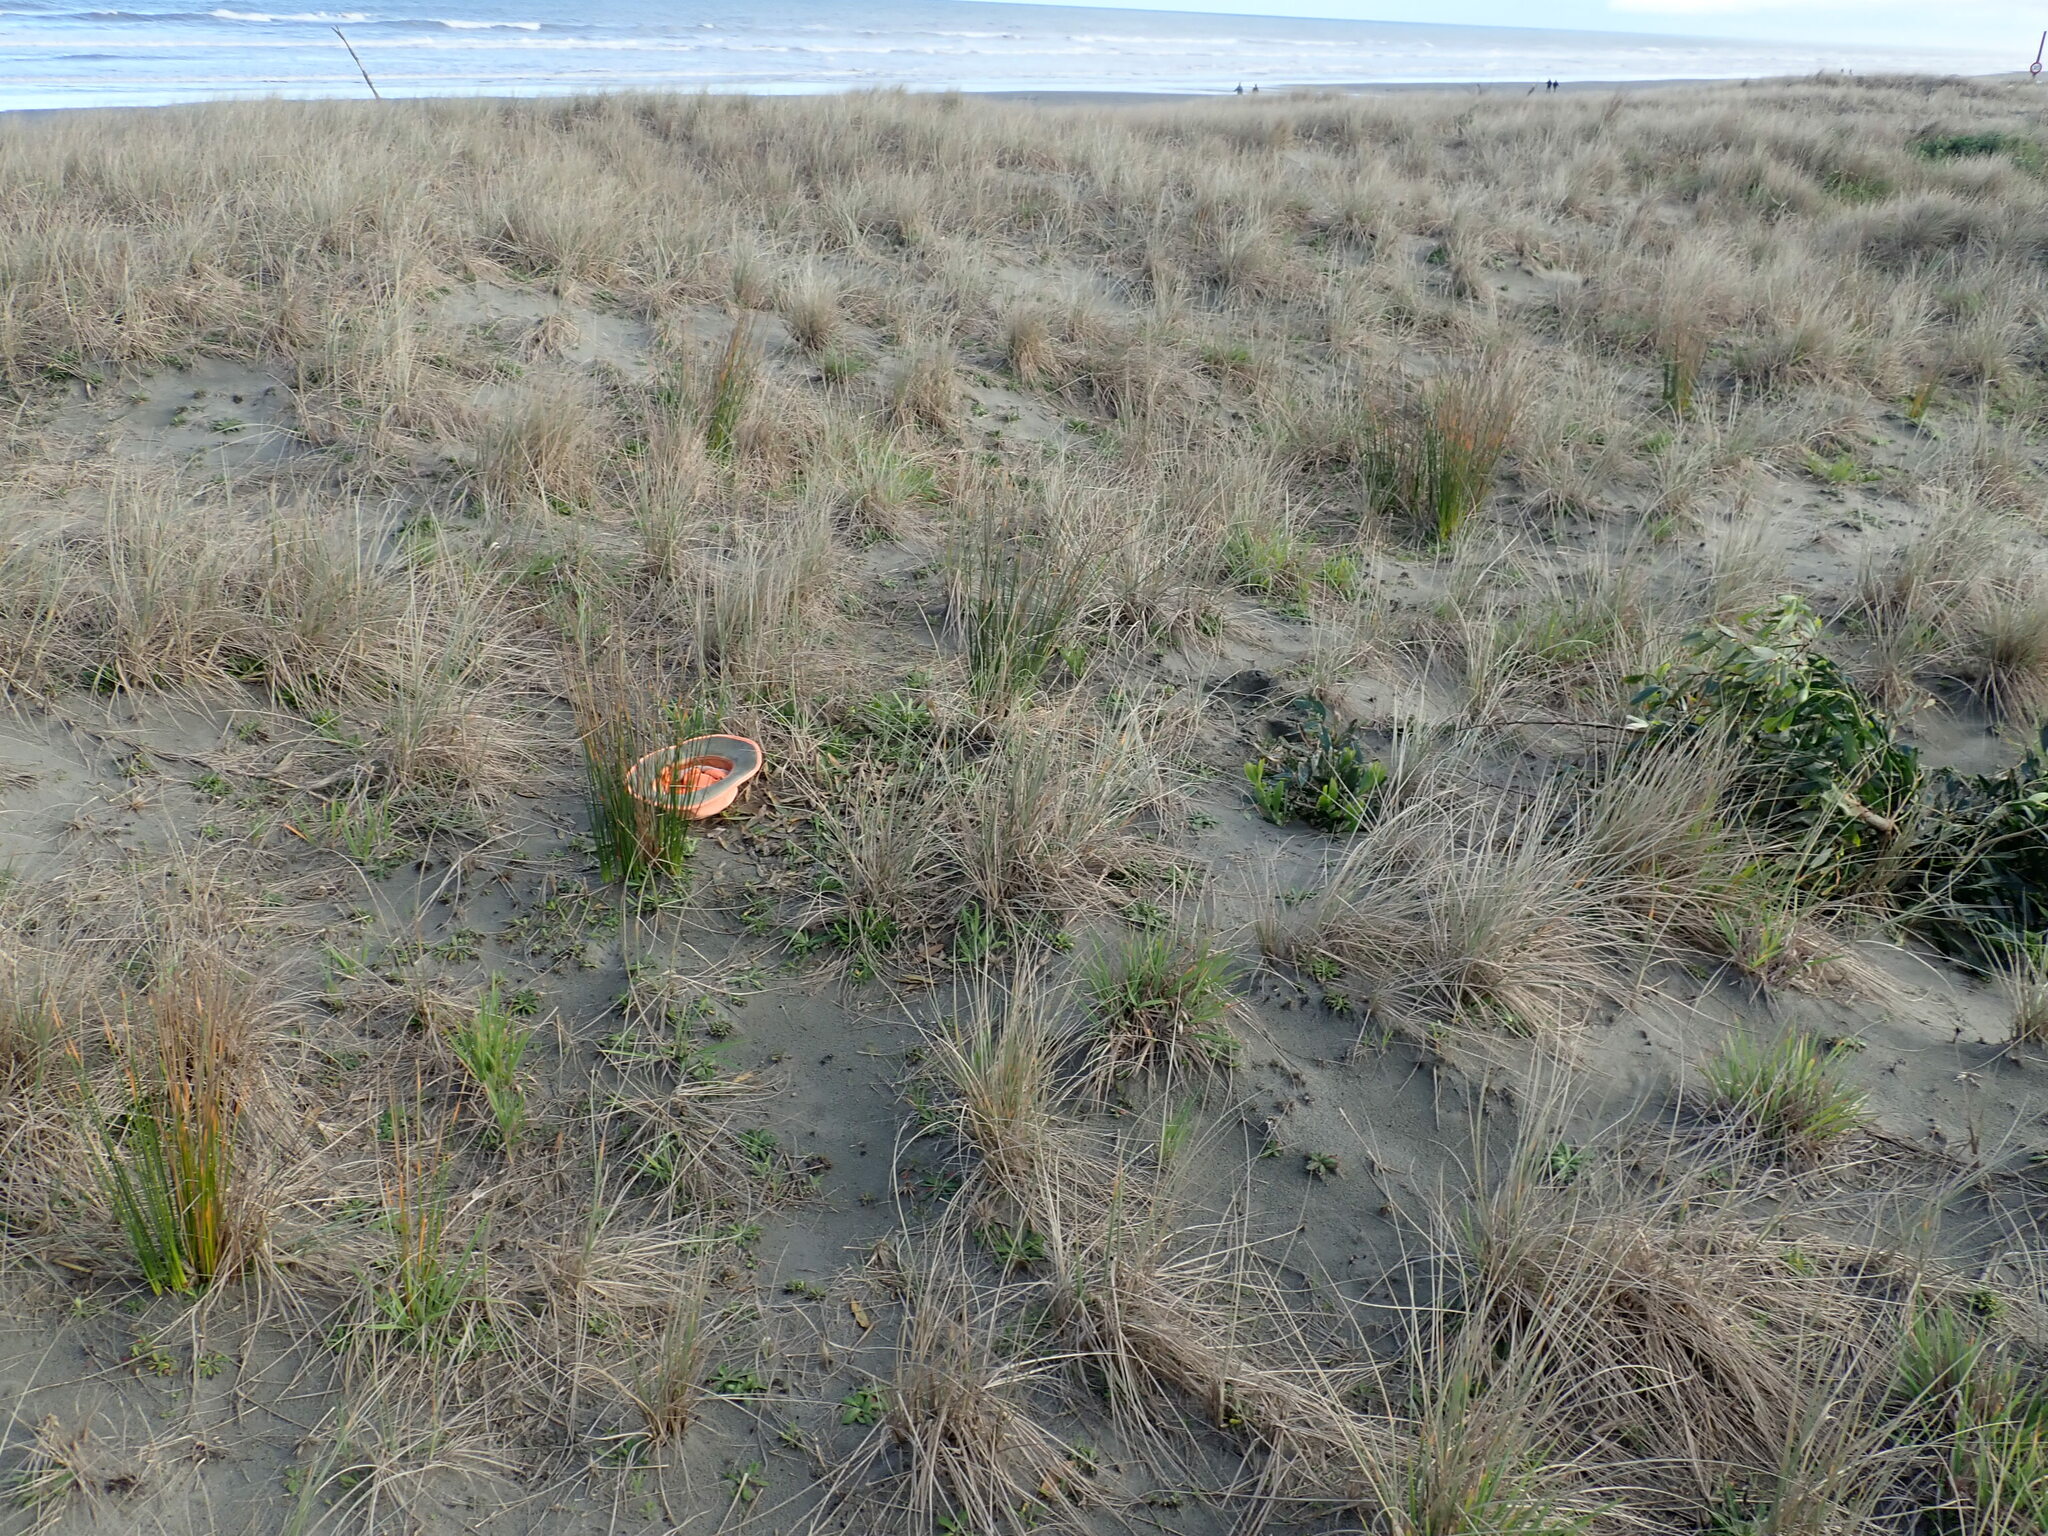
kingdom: Fungi
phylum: Basidiomycota
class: Agaricomycetes
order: Phallales
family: Phallaceae
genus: Ileodictyon
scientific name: Ileodictyon cibarium
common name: Basket fungus
